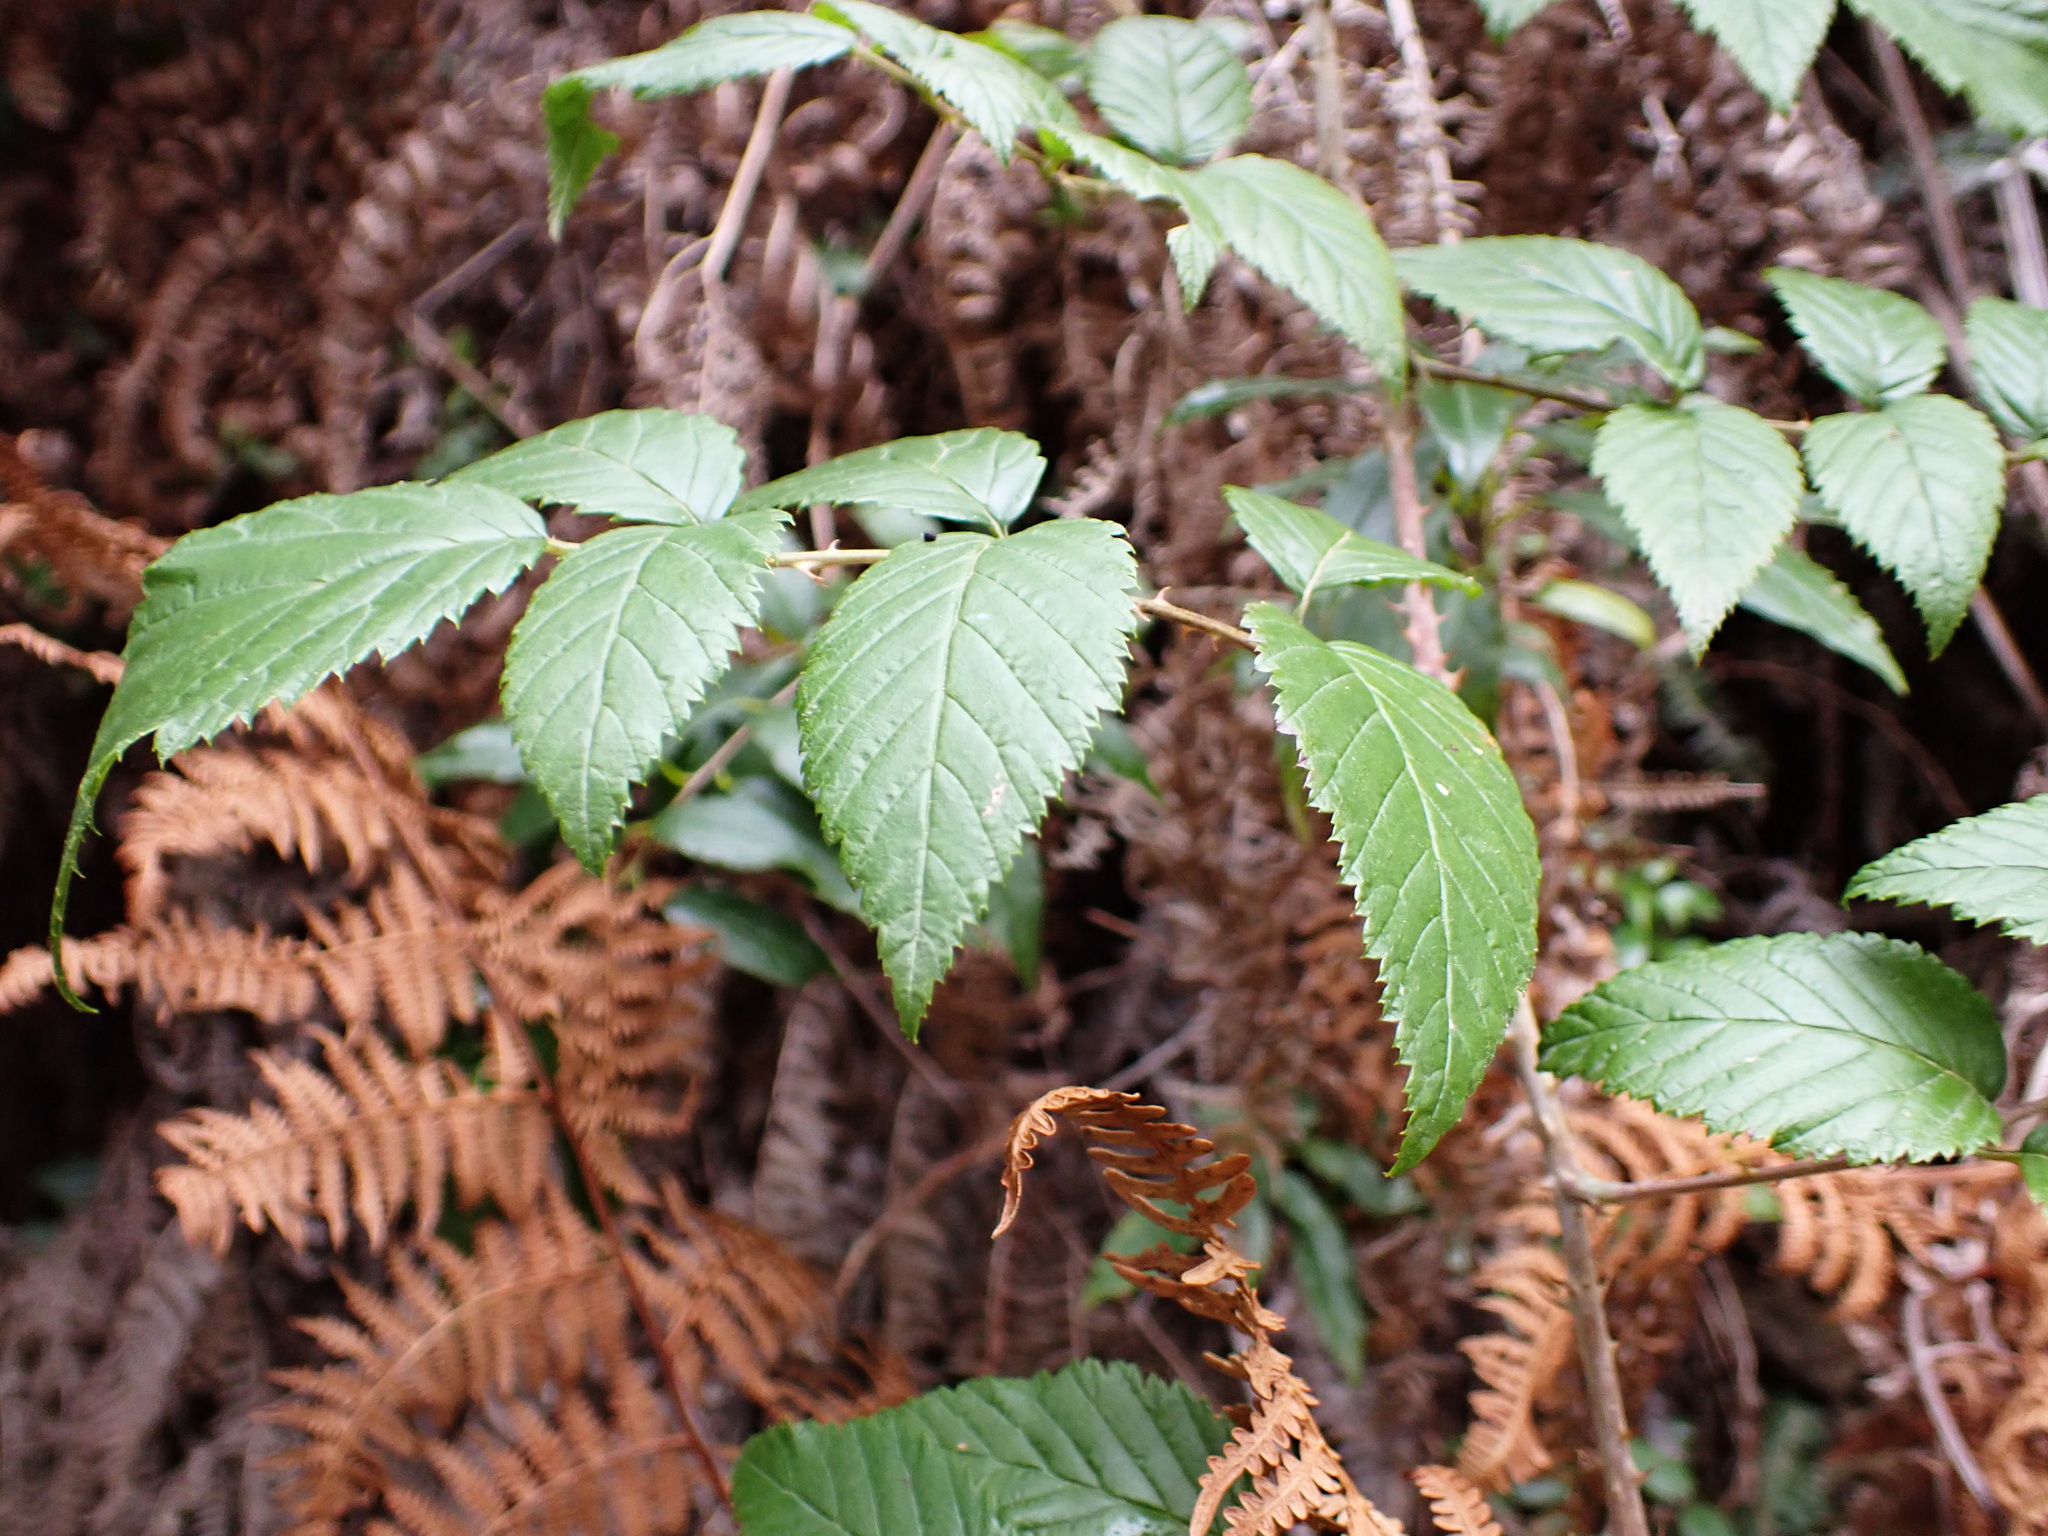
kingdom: Plantae
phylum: Tracheophyta
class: Magnoliopsida
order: Rosales
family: Rosaceae
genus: Rubus
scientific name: Rubus pinnatus
